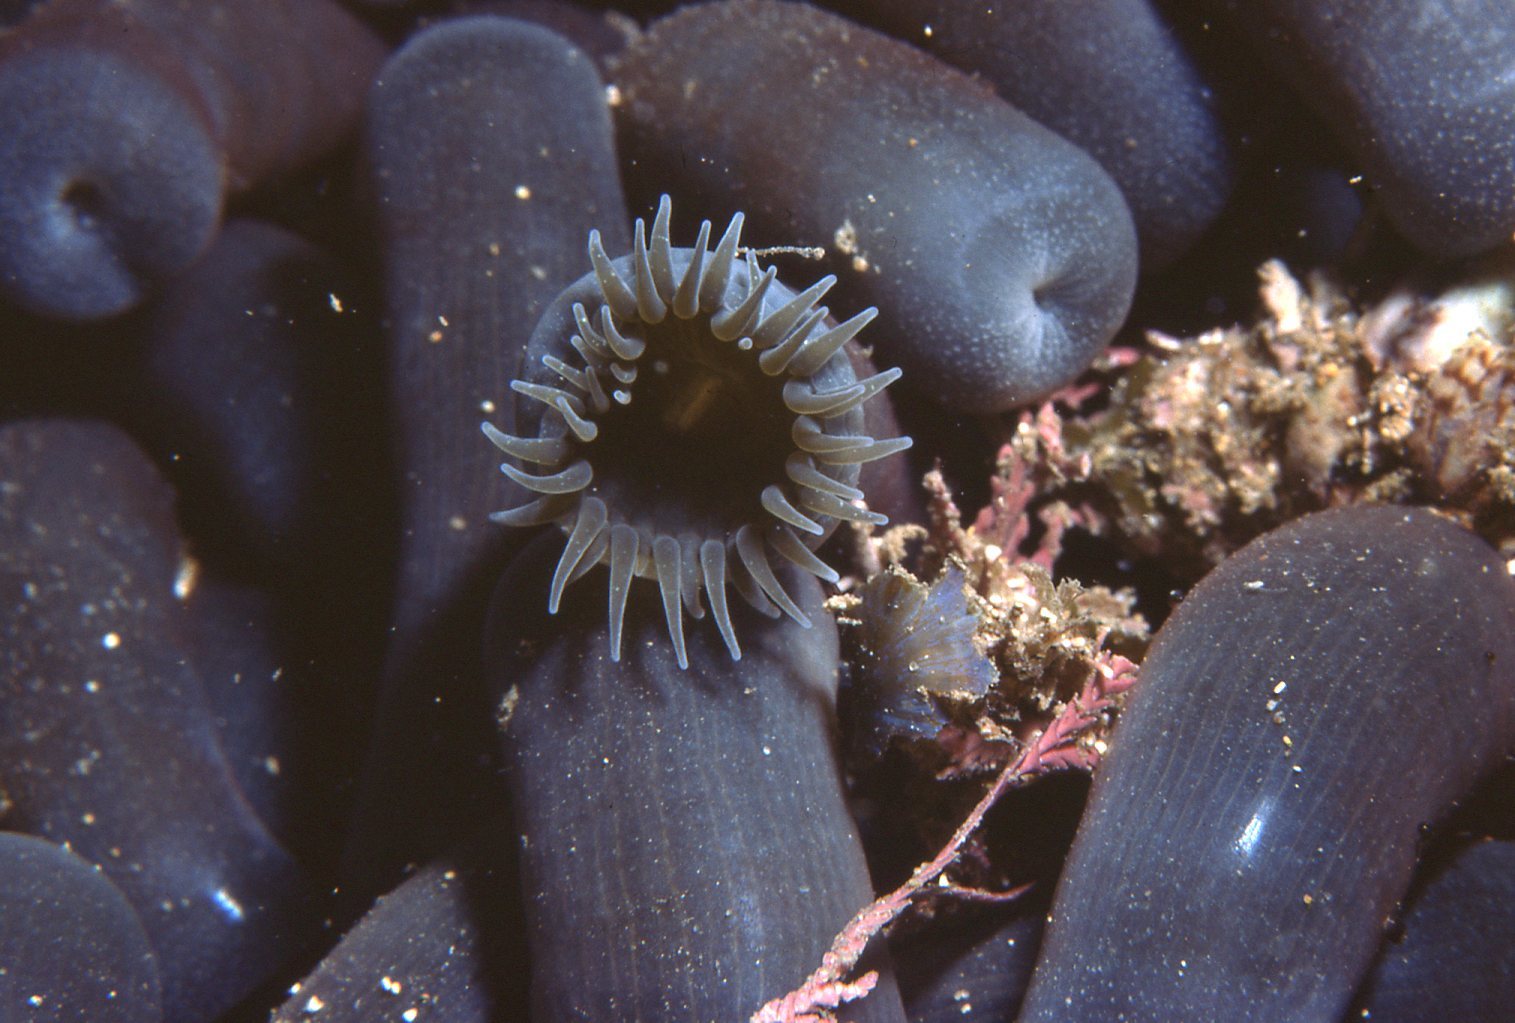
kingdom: Animalia
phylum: Cnidaria
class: Anthozoa
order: Zoantharia
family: Zoanthidae
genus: Zoanthus
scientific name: Zoanthus robustus
